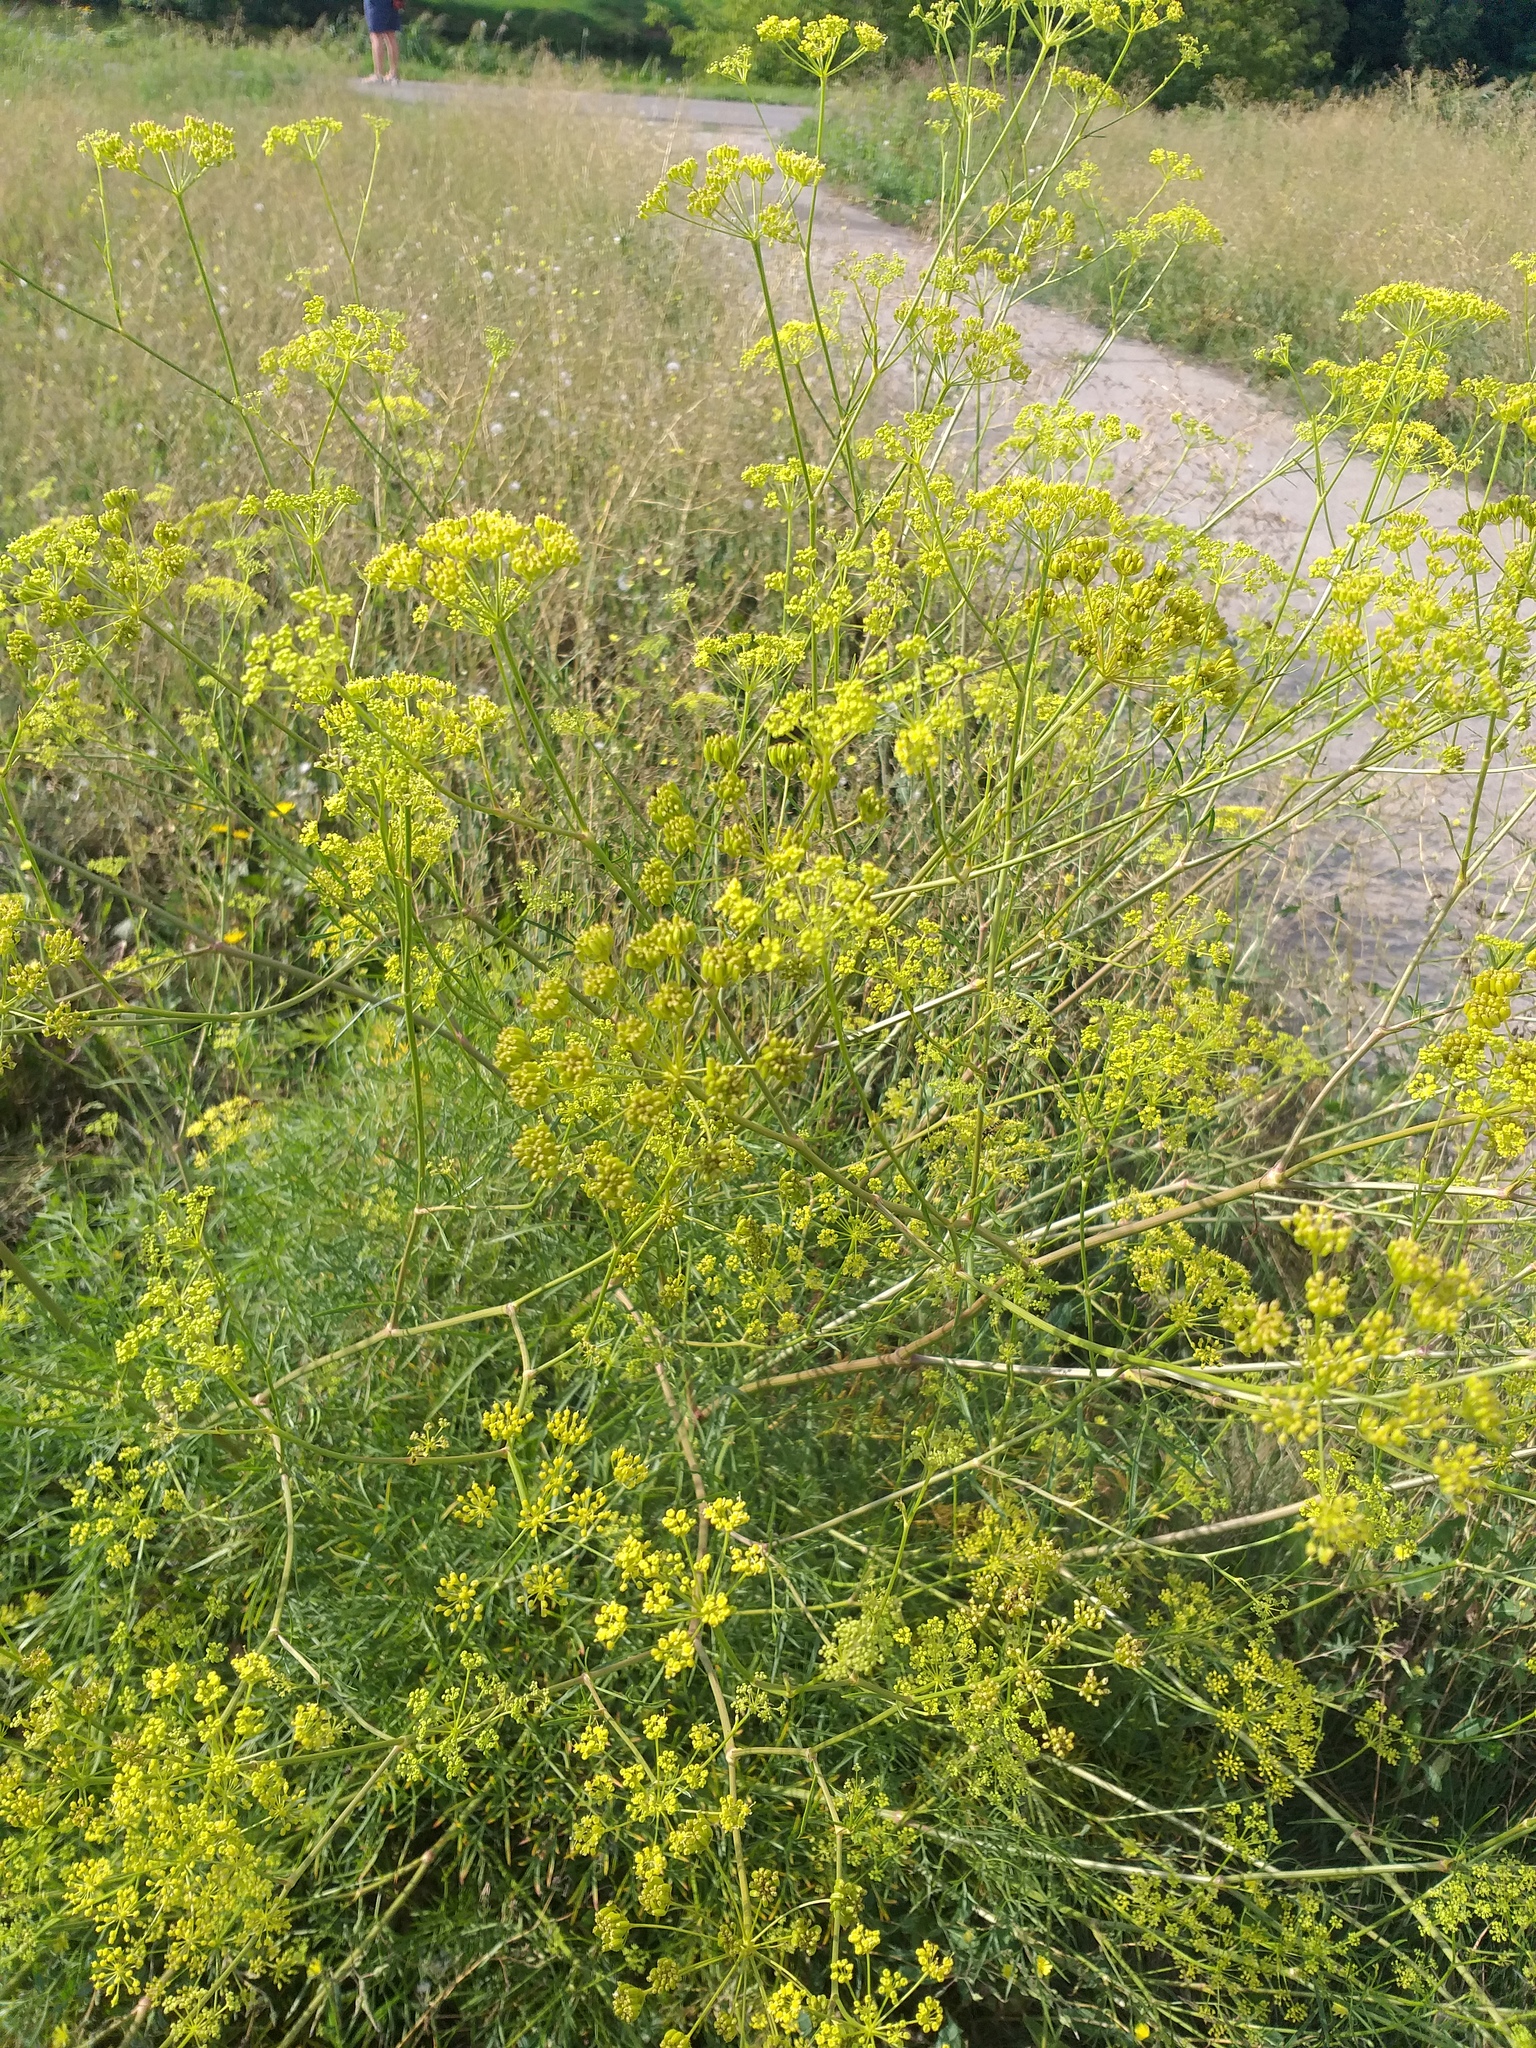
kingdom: Plantae
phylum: Tracheophyta
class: Magnoliopsida
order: Apiales
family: Apiaceae
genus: Silaum
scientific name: Silaum silaus
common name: Pepper-saxifrage
